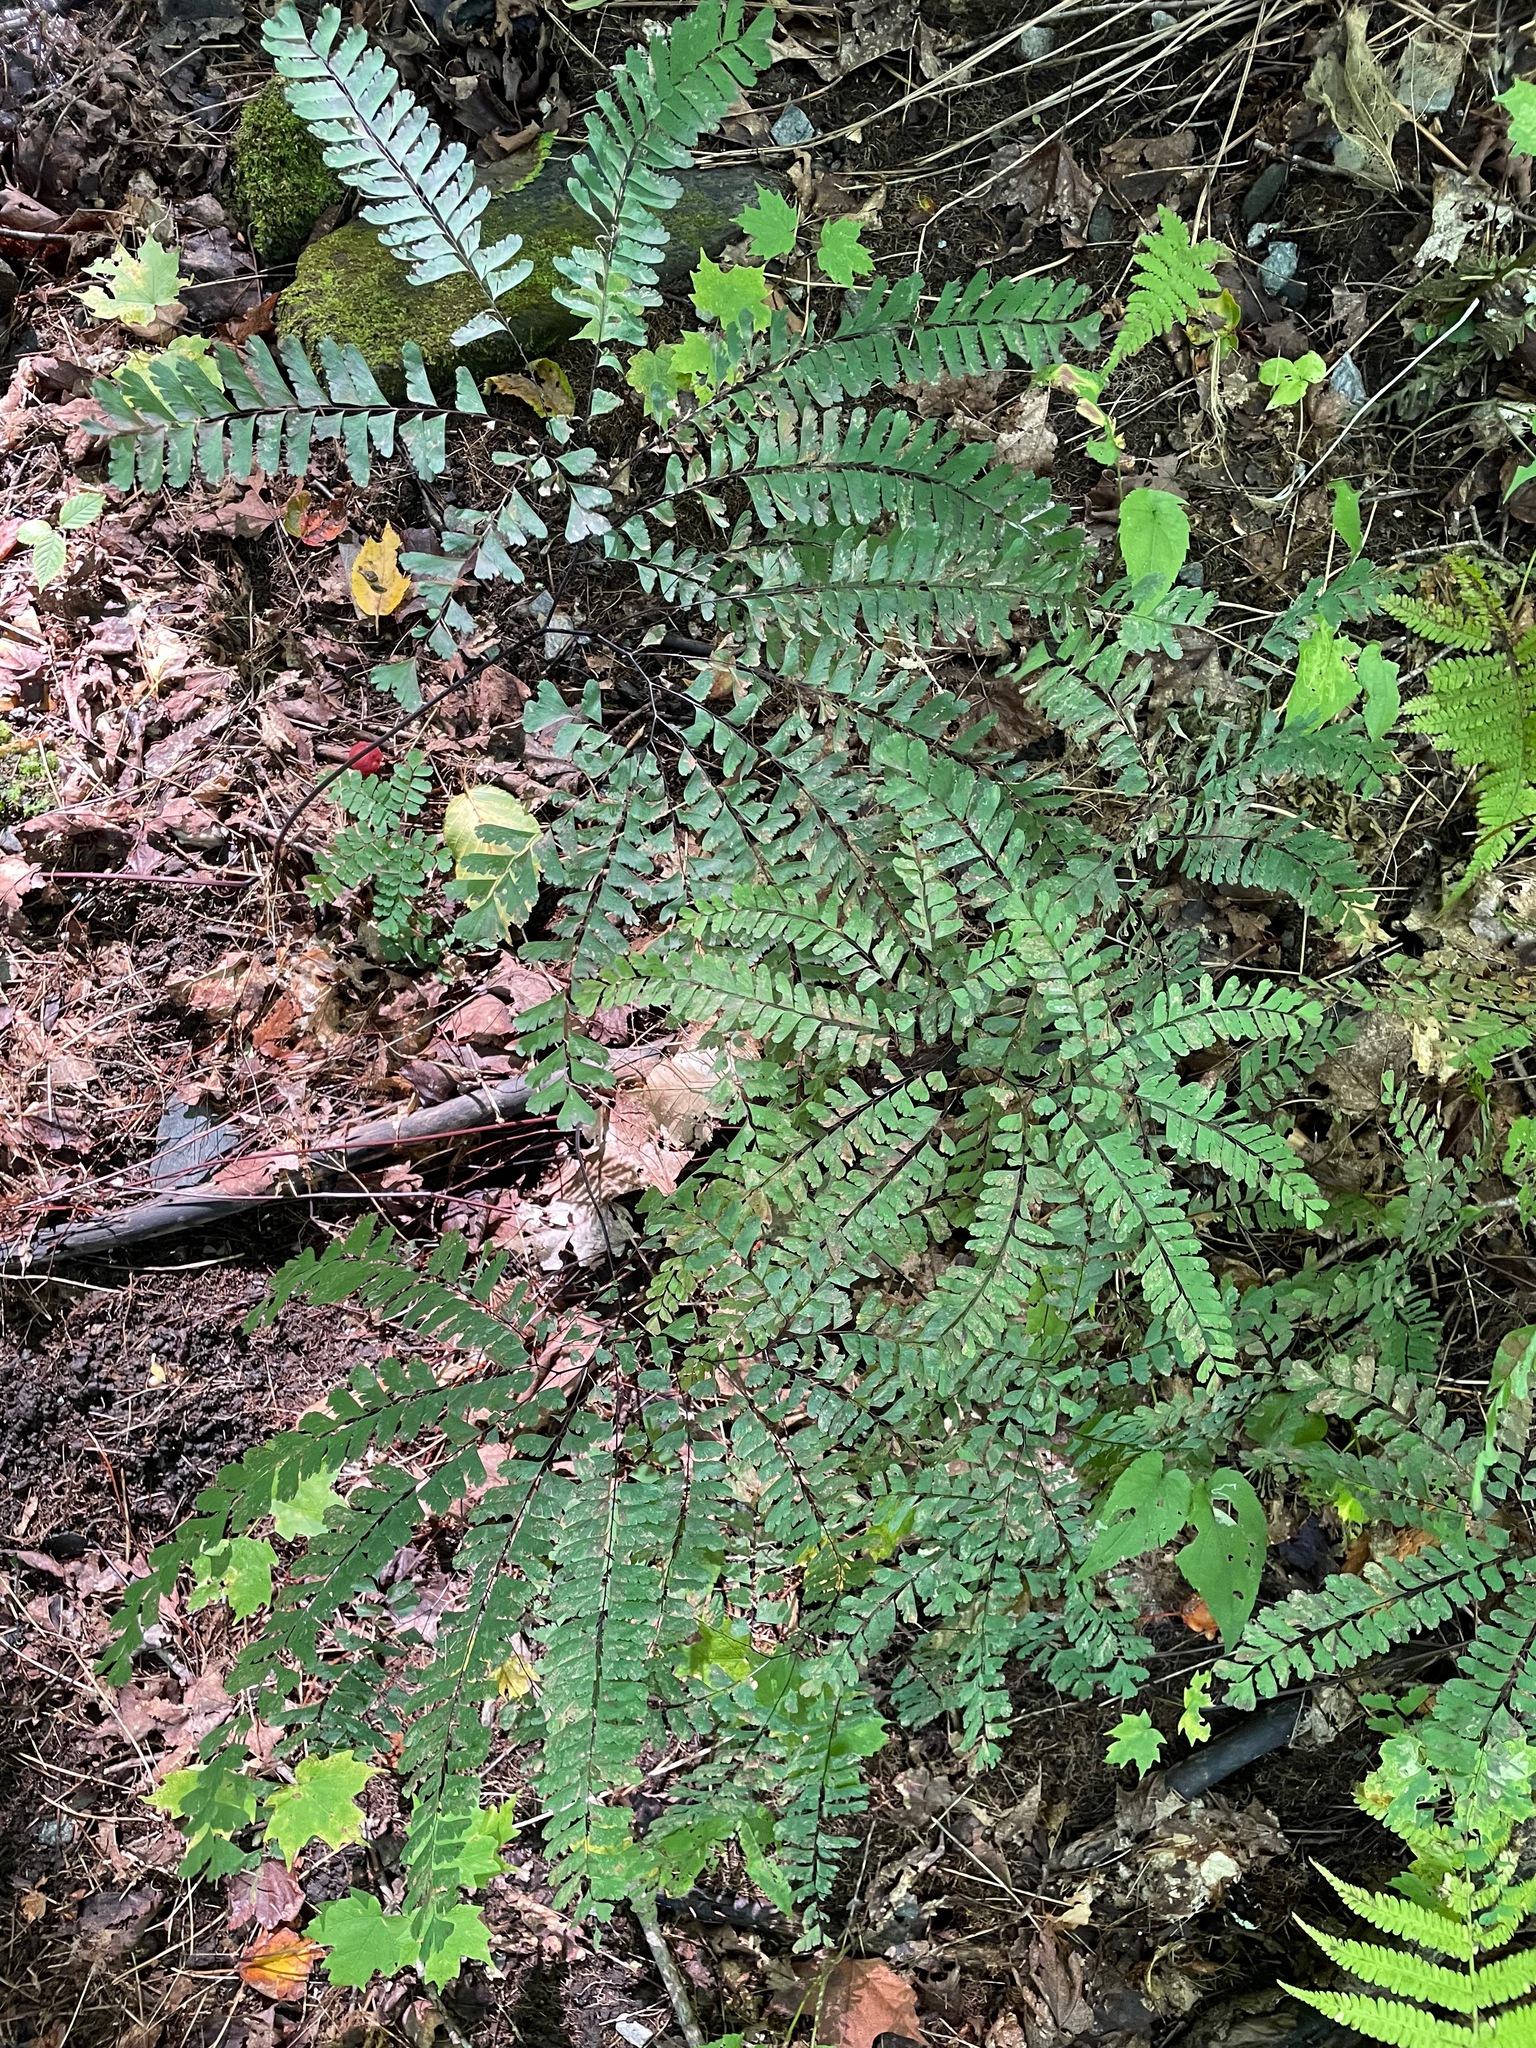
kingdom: Plantae
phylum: Tracheophyta
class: Polypodiopsida
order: Polypodiales
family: Pteridaceae
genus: Adiantum
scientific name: Adiantum pedatum
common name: Five-finger fern
